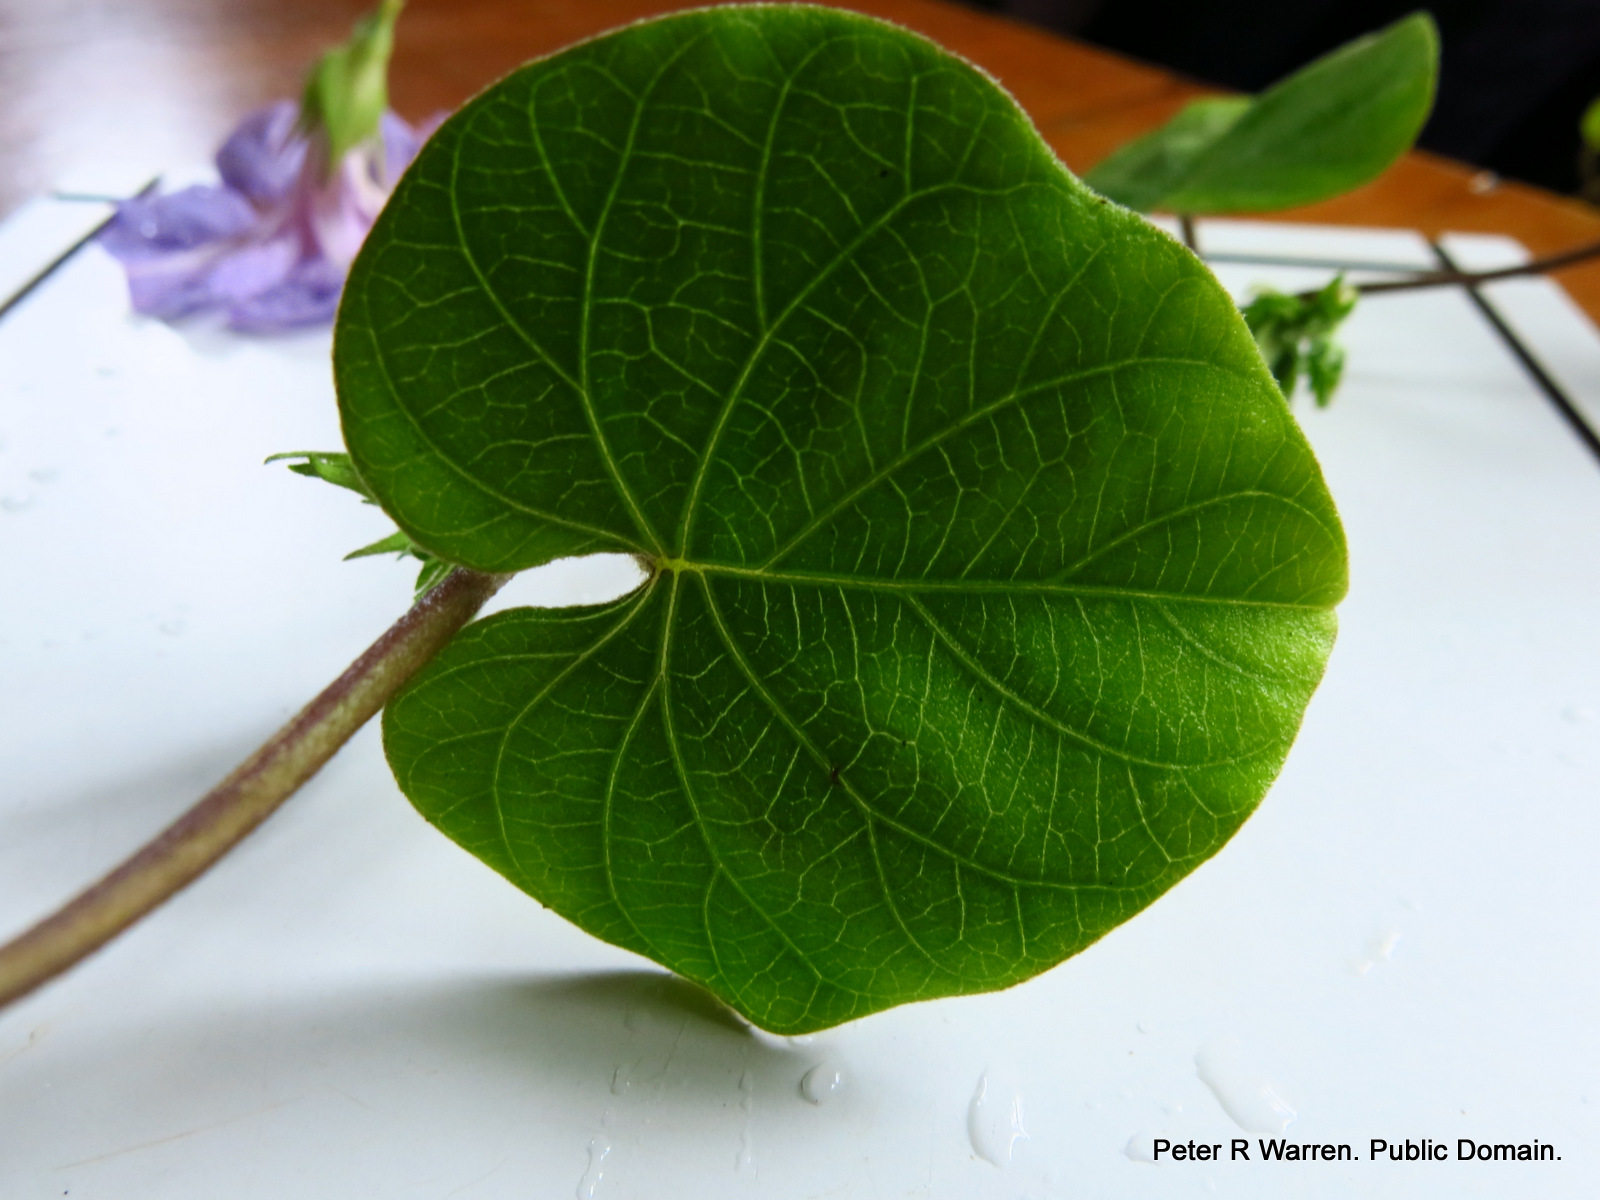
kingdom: Plantae
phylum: Tracheophyta
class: Magnoliopsida
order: Solanales
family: Convolvulaceae
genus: Ipomoea
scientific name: Ipomoea indica
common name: Blue dawnflower
